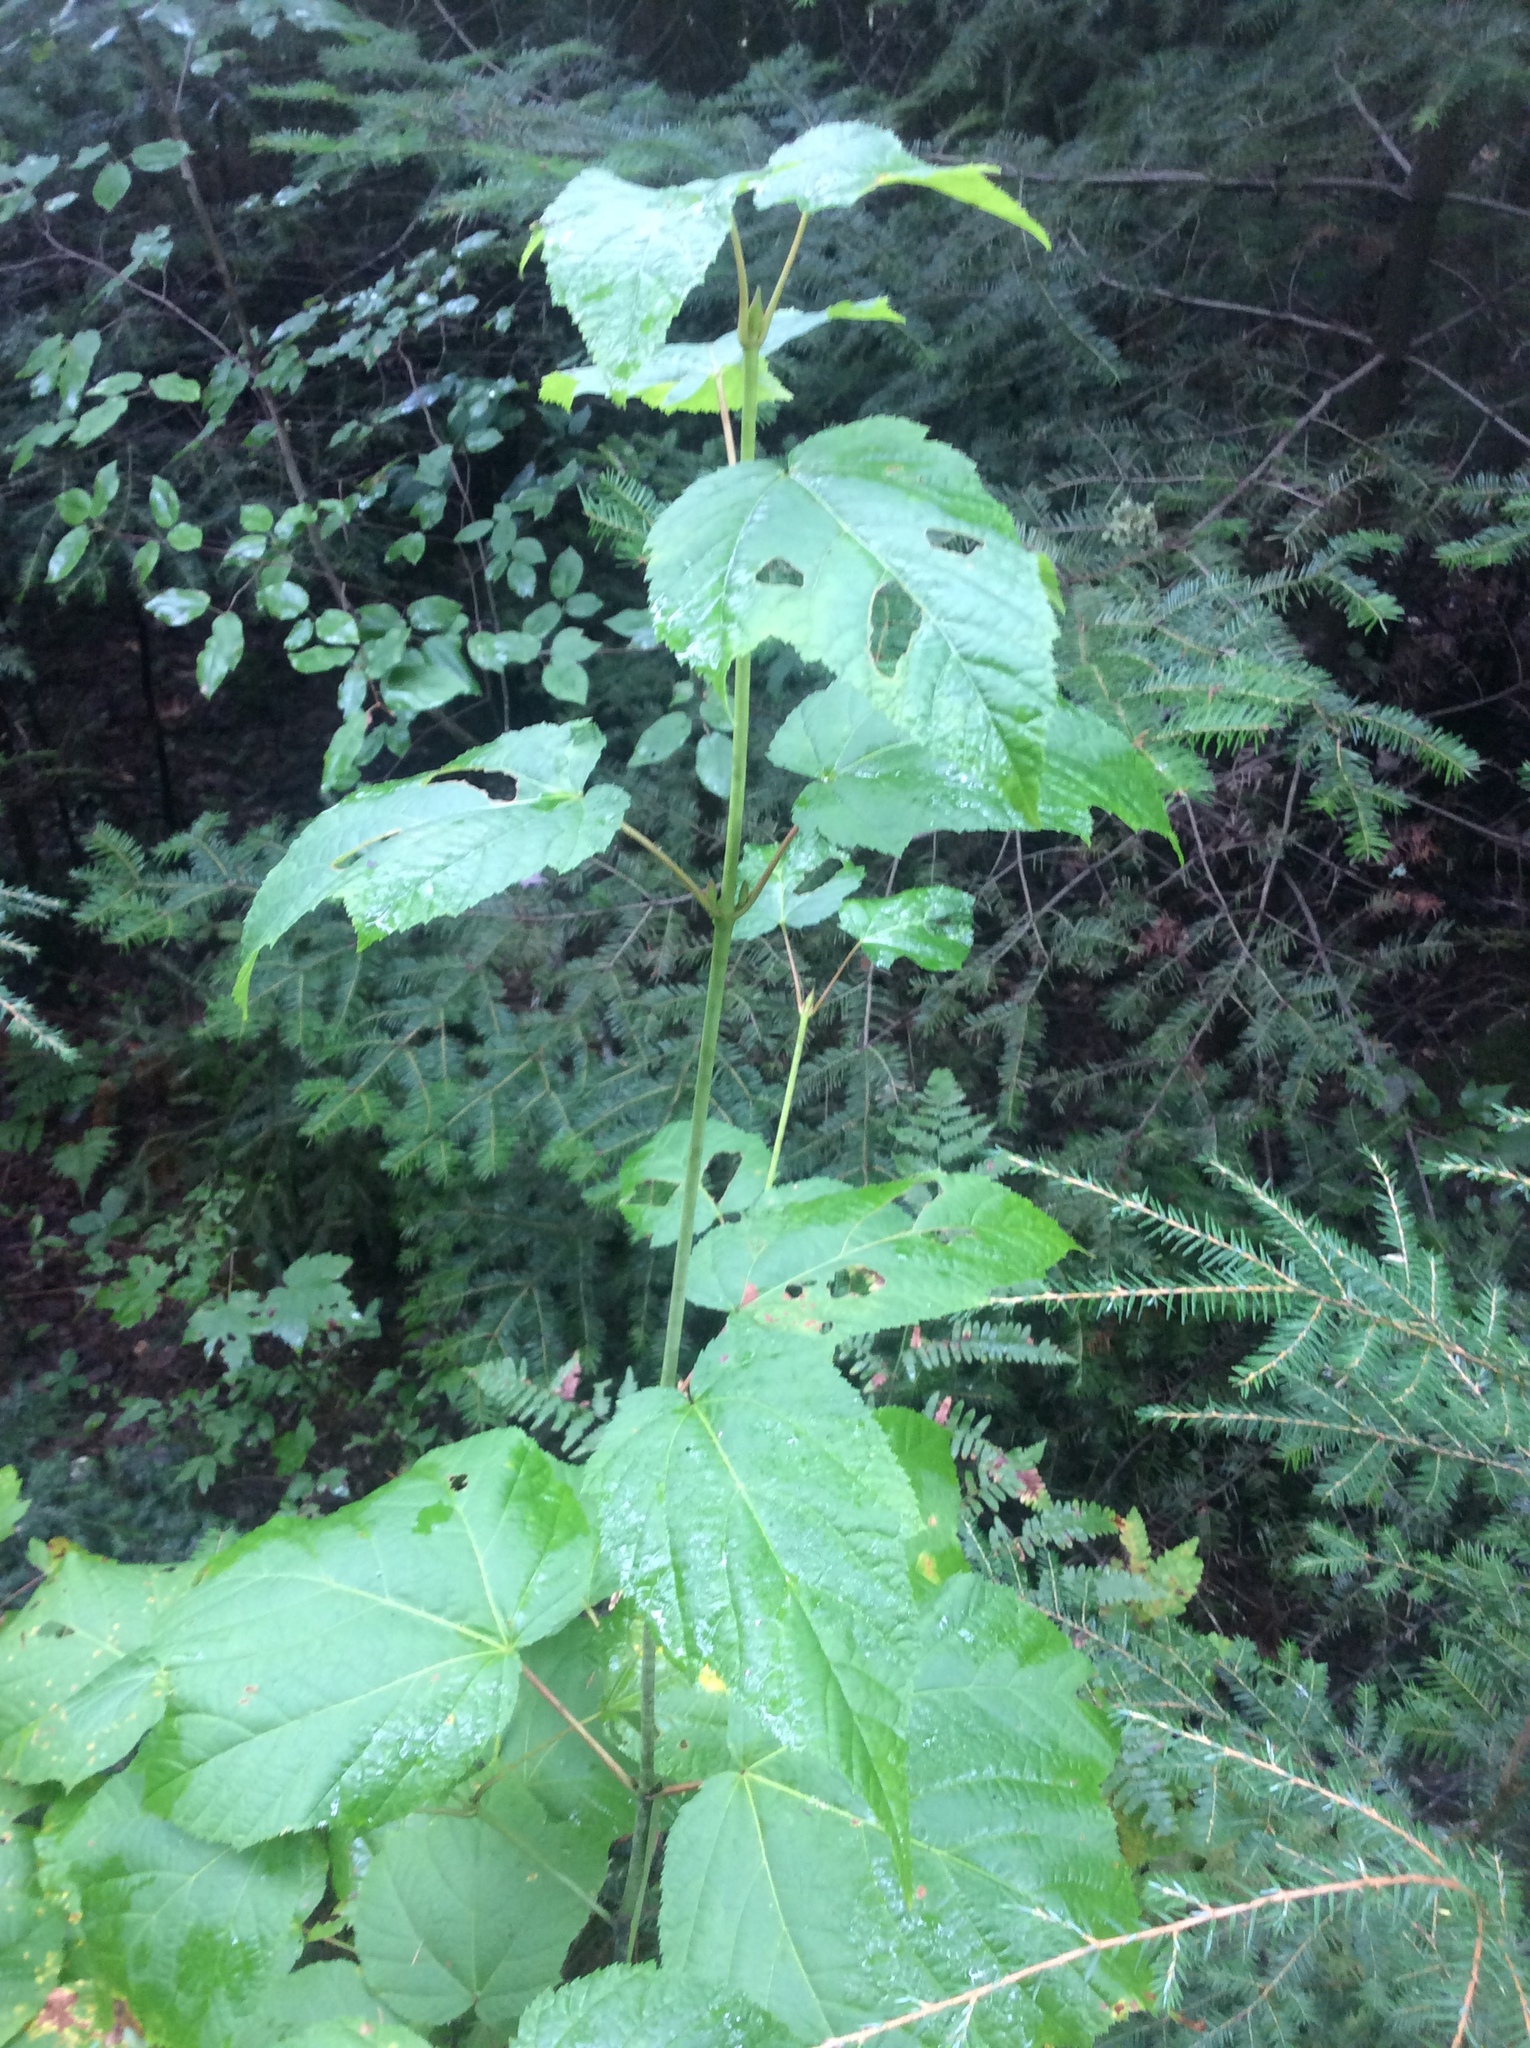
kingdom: Plantae
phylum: Tracheophyta
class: Magnoliopsida
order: Sapindales
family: Sapindaceae
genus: Acer
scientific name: Acer pensylvanicum
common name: Moosewood
